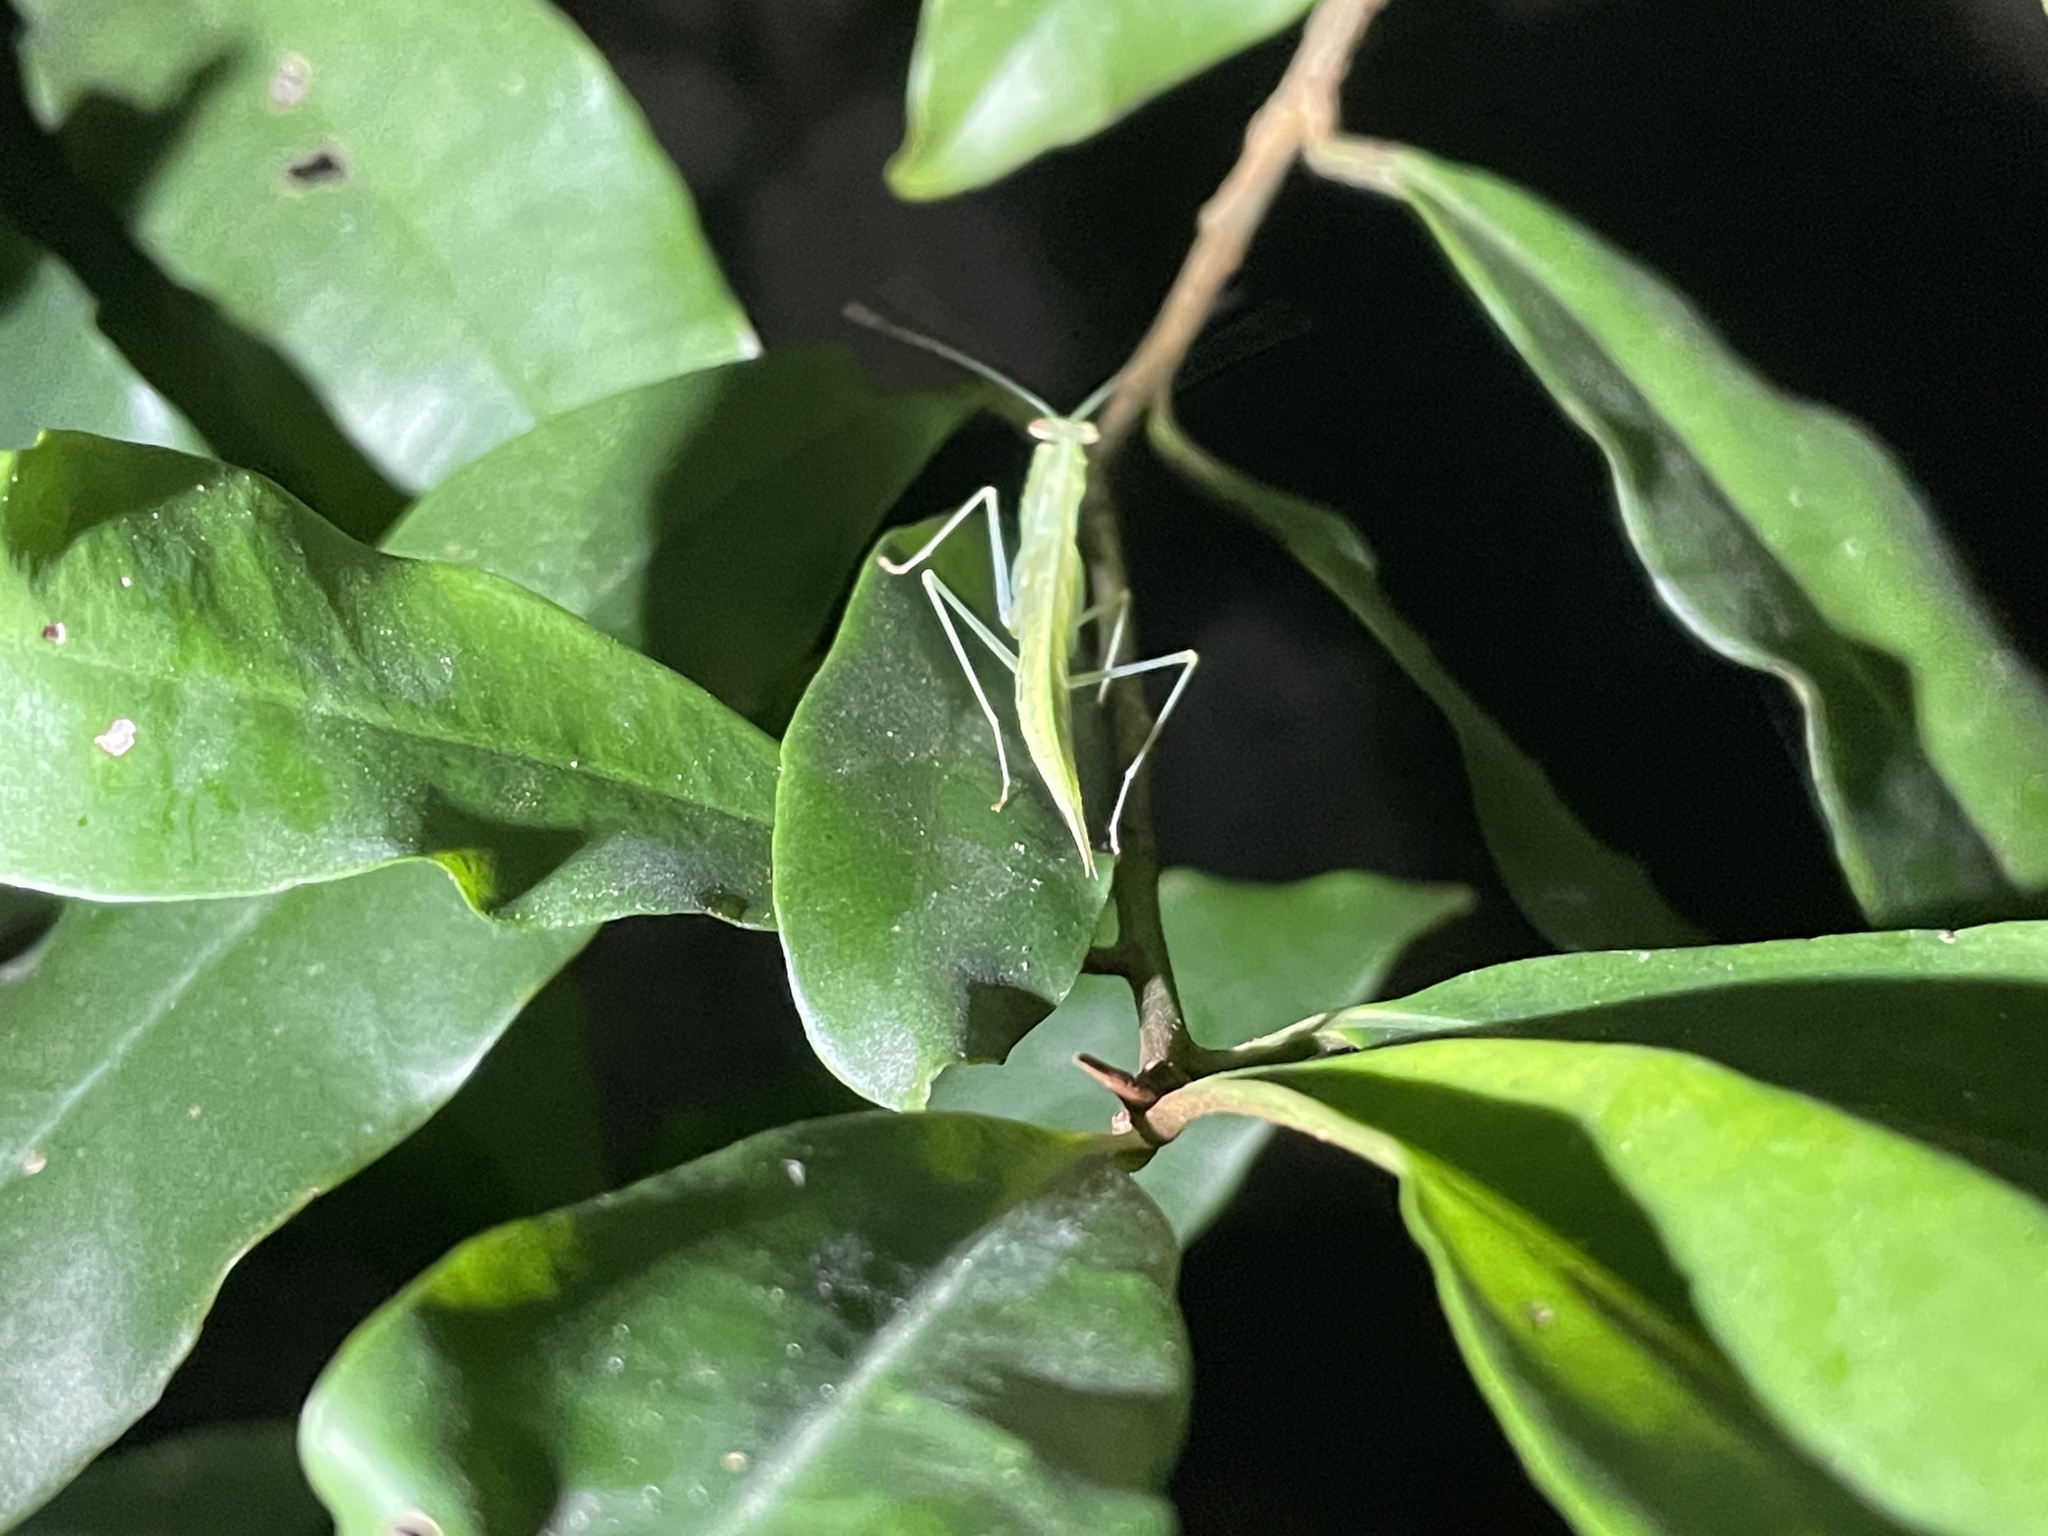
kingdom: Animalia
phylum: Arthropoda
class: Insecta
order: Mantodea
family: Nanomantidae
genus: Sinomantis
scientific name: Sinomantis denticulata
